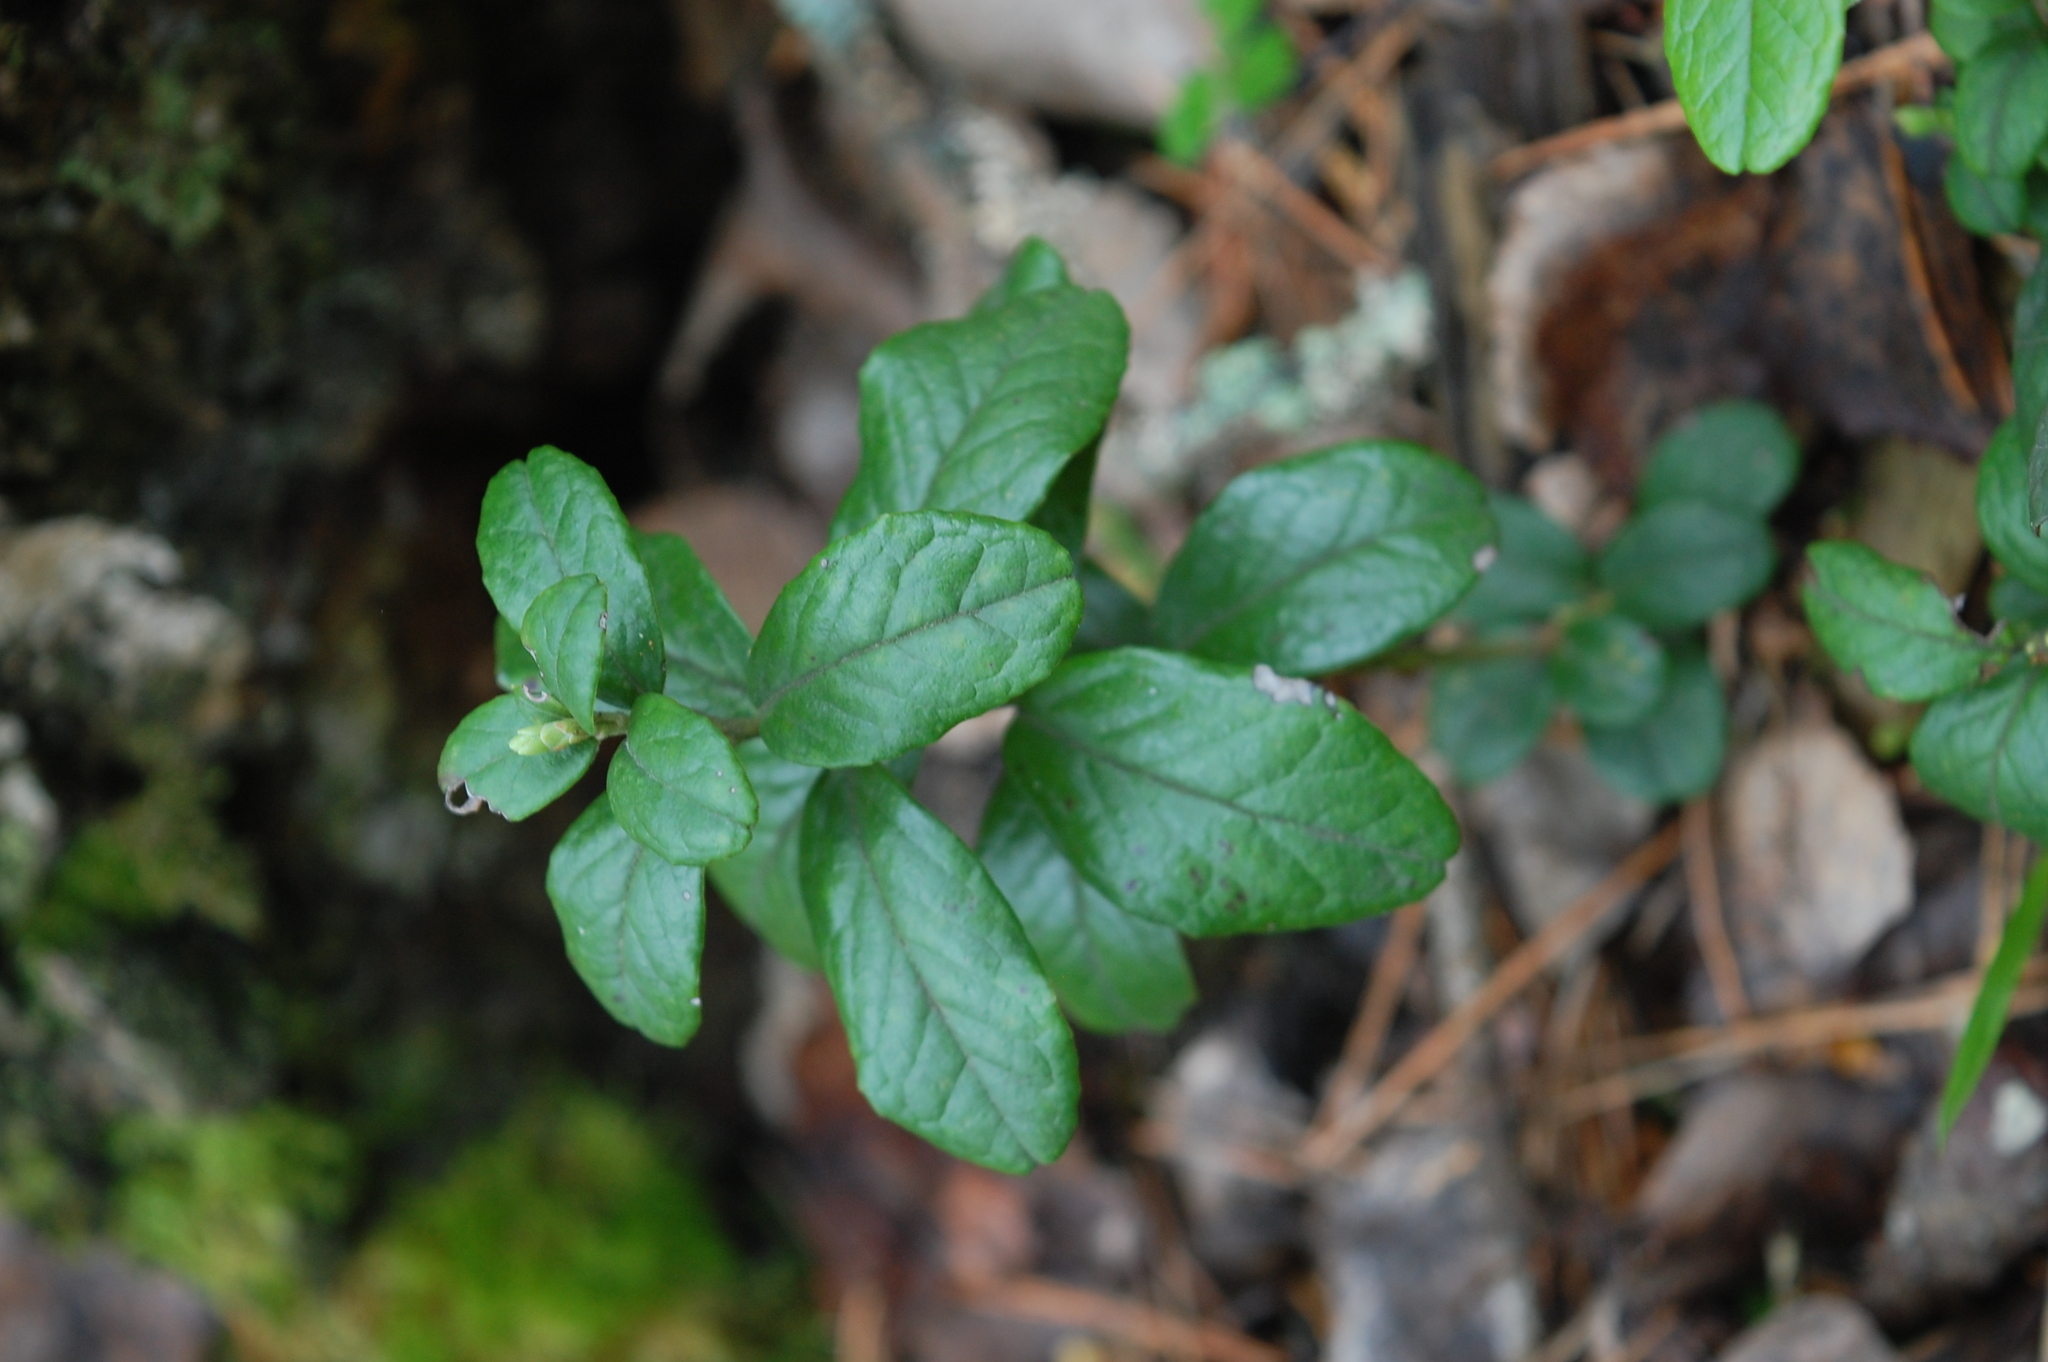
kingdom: Plantae
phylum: Tracheophyta
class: Magnoliopsida
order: Ericales
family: Ericaceae
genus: Vaccinium
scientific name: Vaccinium vitis-idaea
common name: Cowberry
